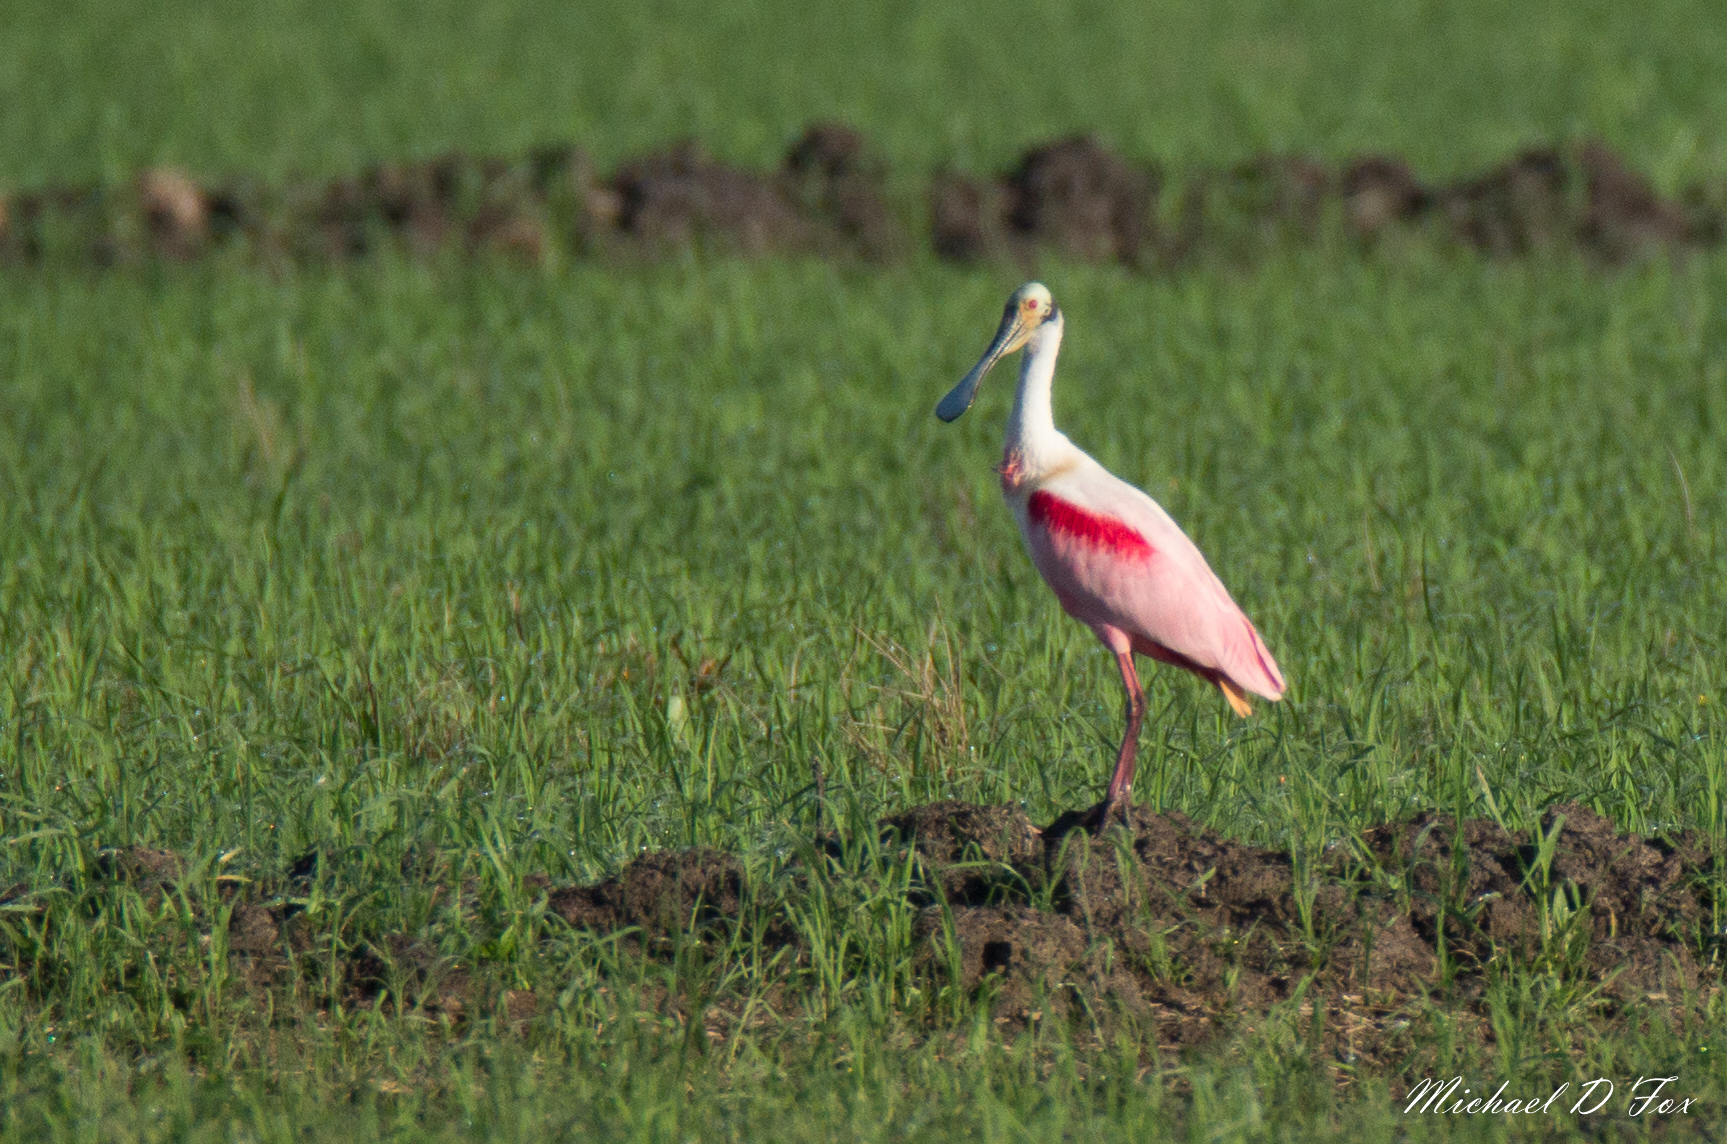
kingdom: Animalia
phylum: Chordata
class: Aves
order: Pelecaniformes
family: Threskiornithidae
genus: Platalea
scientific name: Platalea ajaja
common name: Roseate spoonbill
